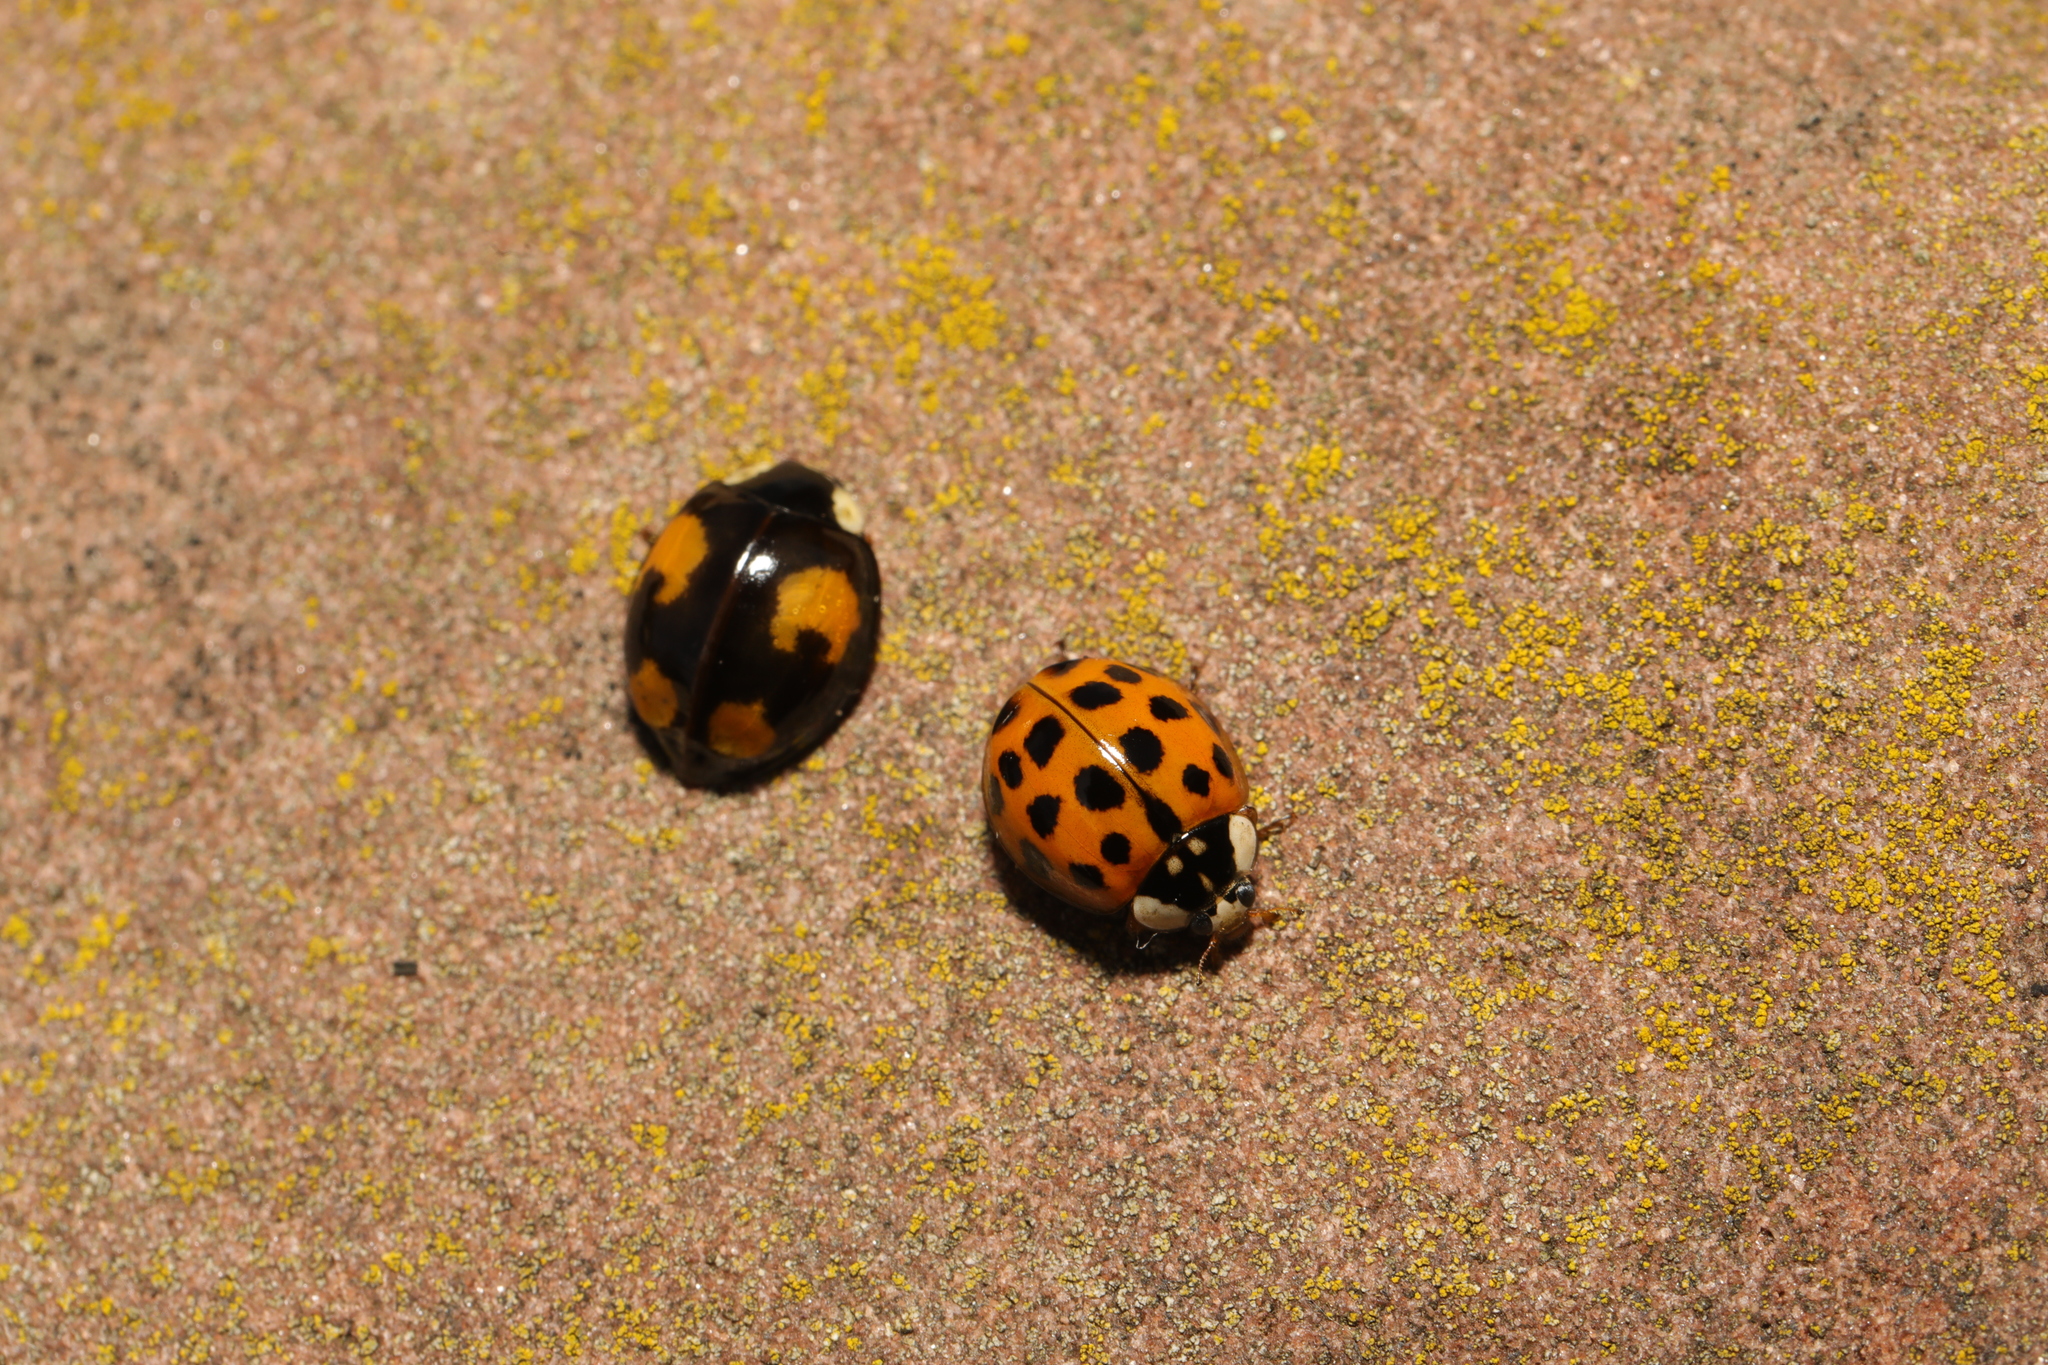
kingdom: Animalia
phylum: Arthropoda
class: Insecta
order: Coleoptera
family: Coccinellidae
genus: Harmonia
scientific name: Harmonia axyridis
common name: Harlequin ladybird
